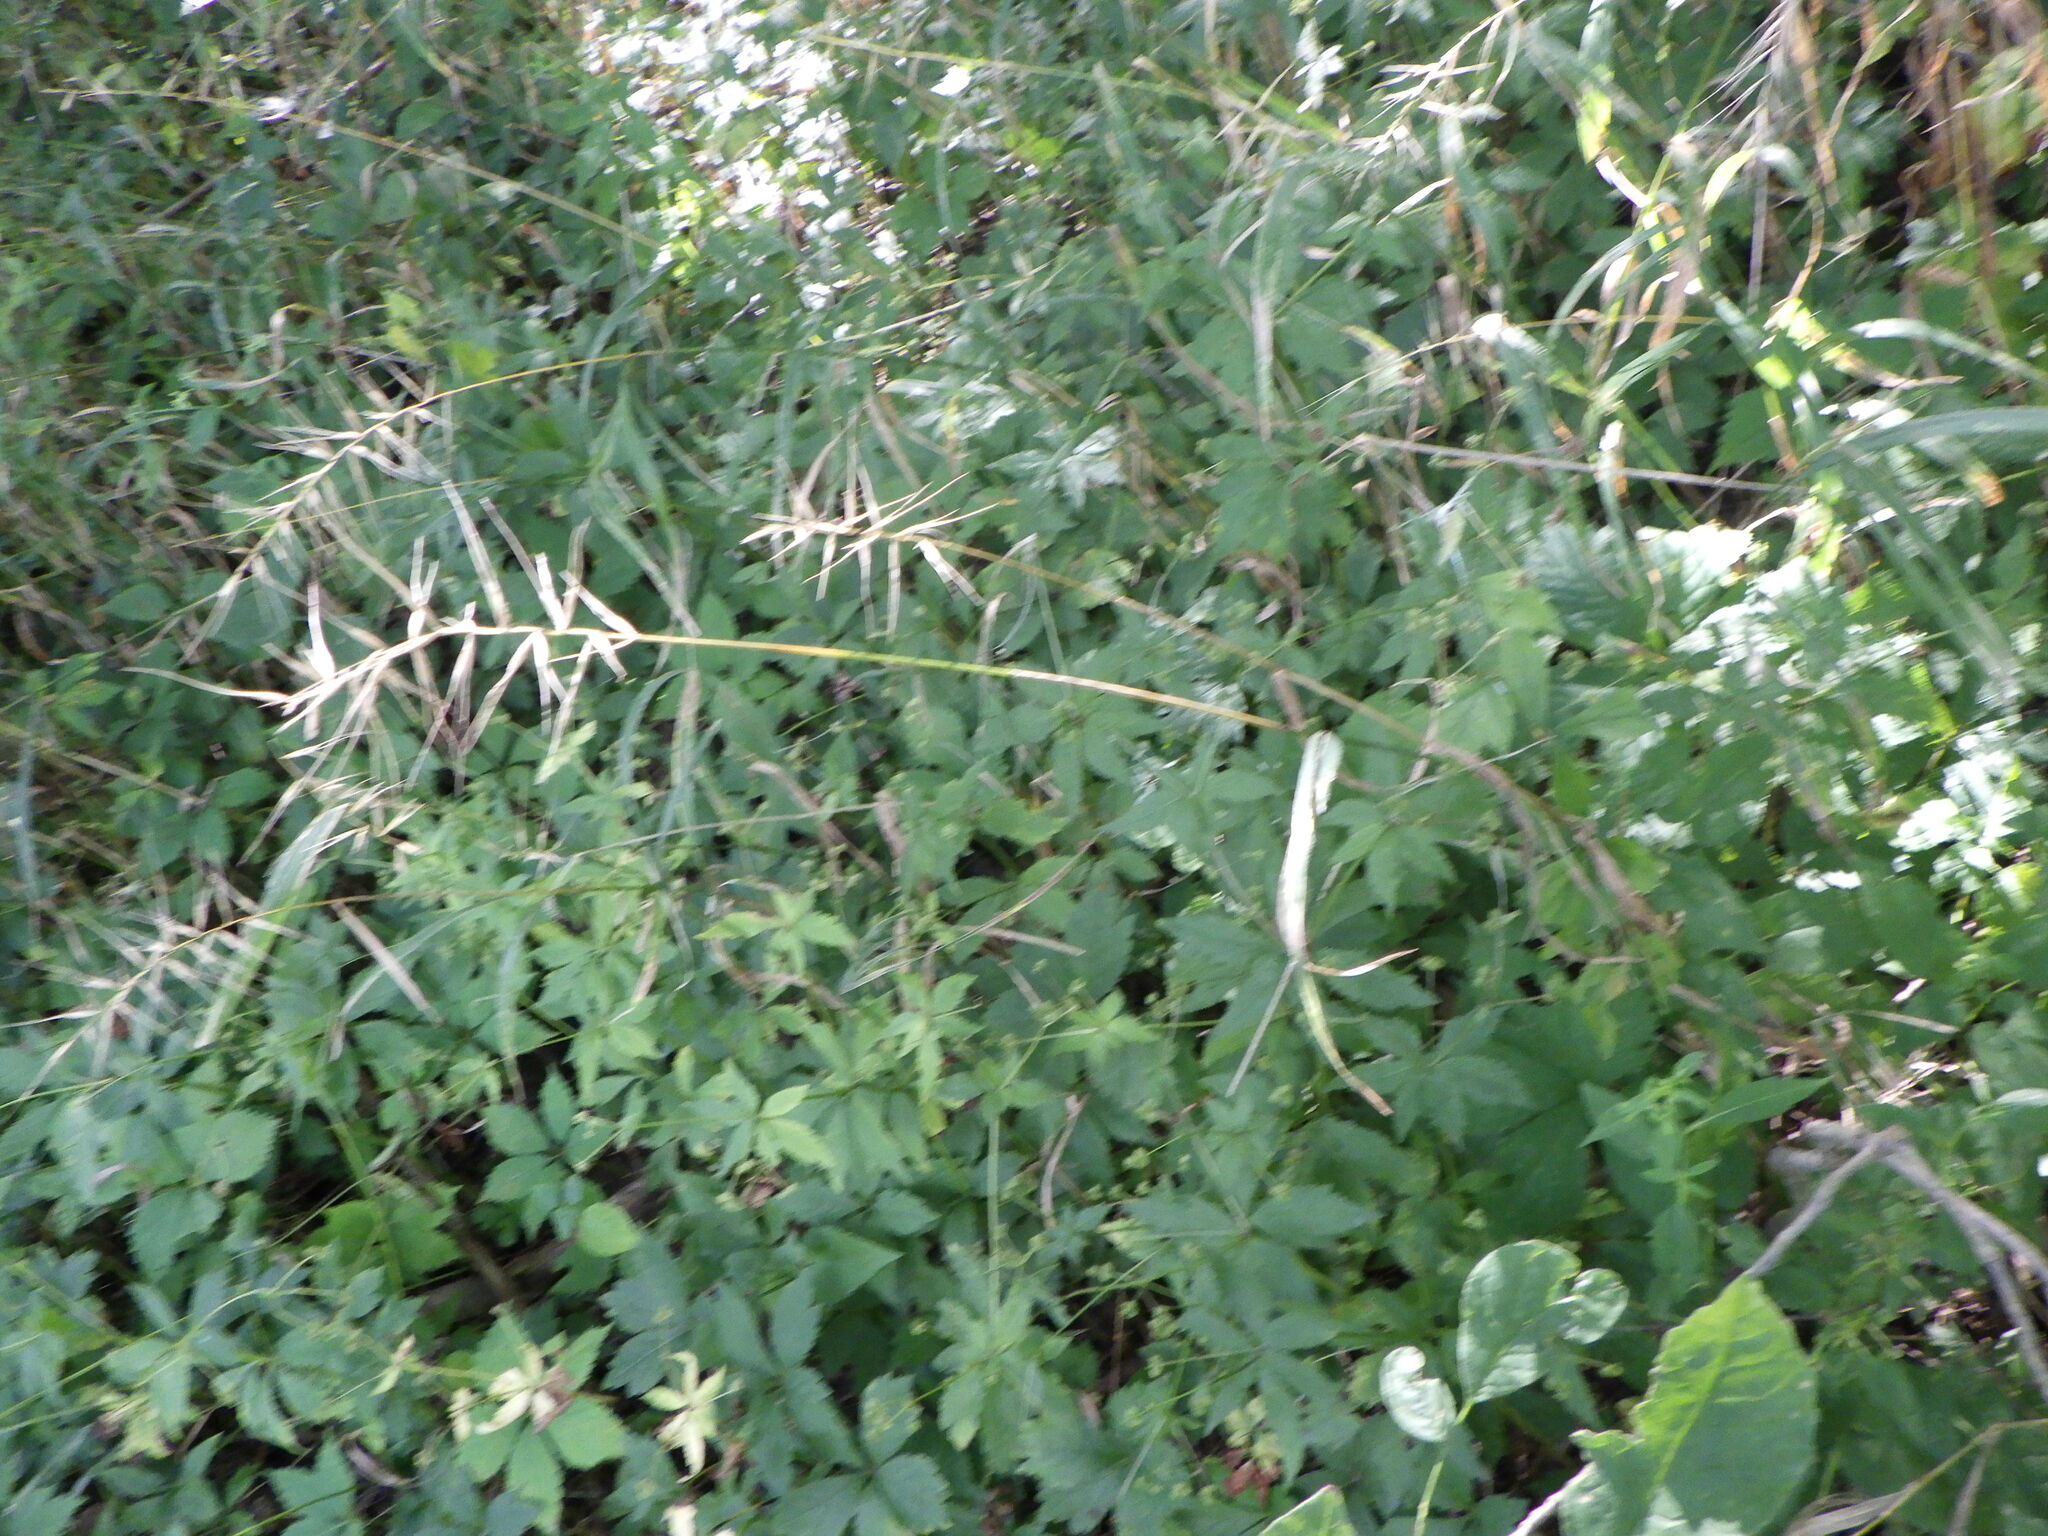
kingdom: Plantae
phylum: Tracheophyta
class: Liliopsida
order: Poales
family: Poaceae
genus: Elymus
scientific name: Elymus hystrix
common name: Bottlebrush grass
